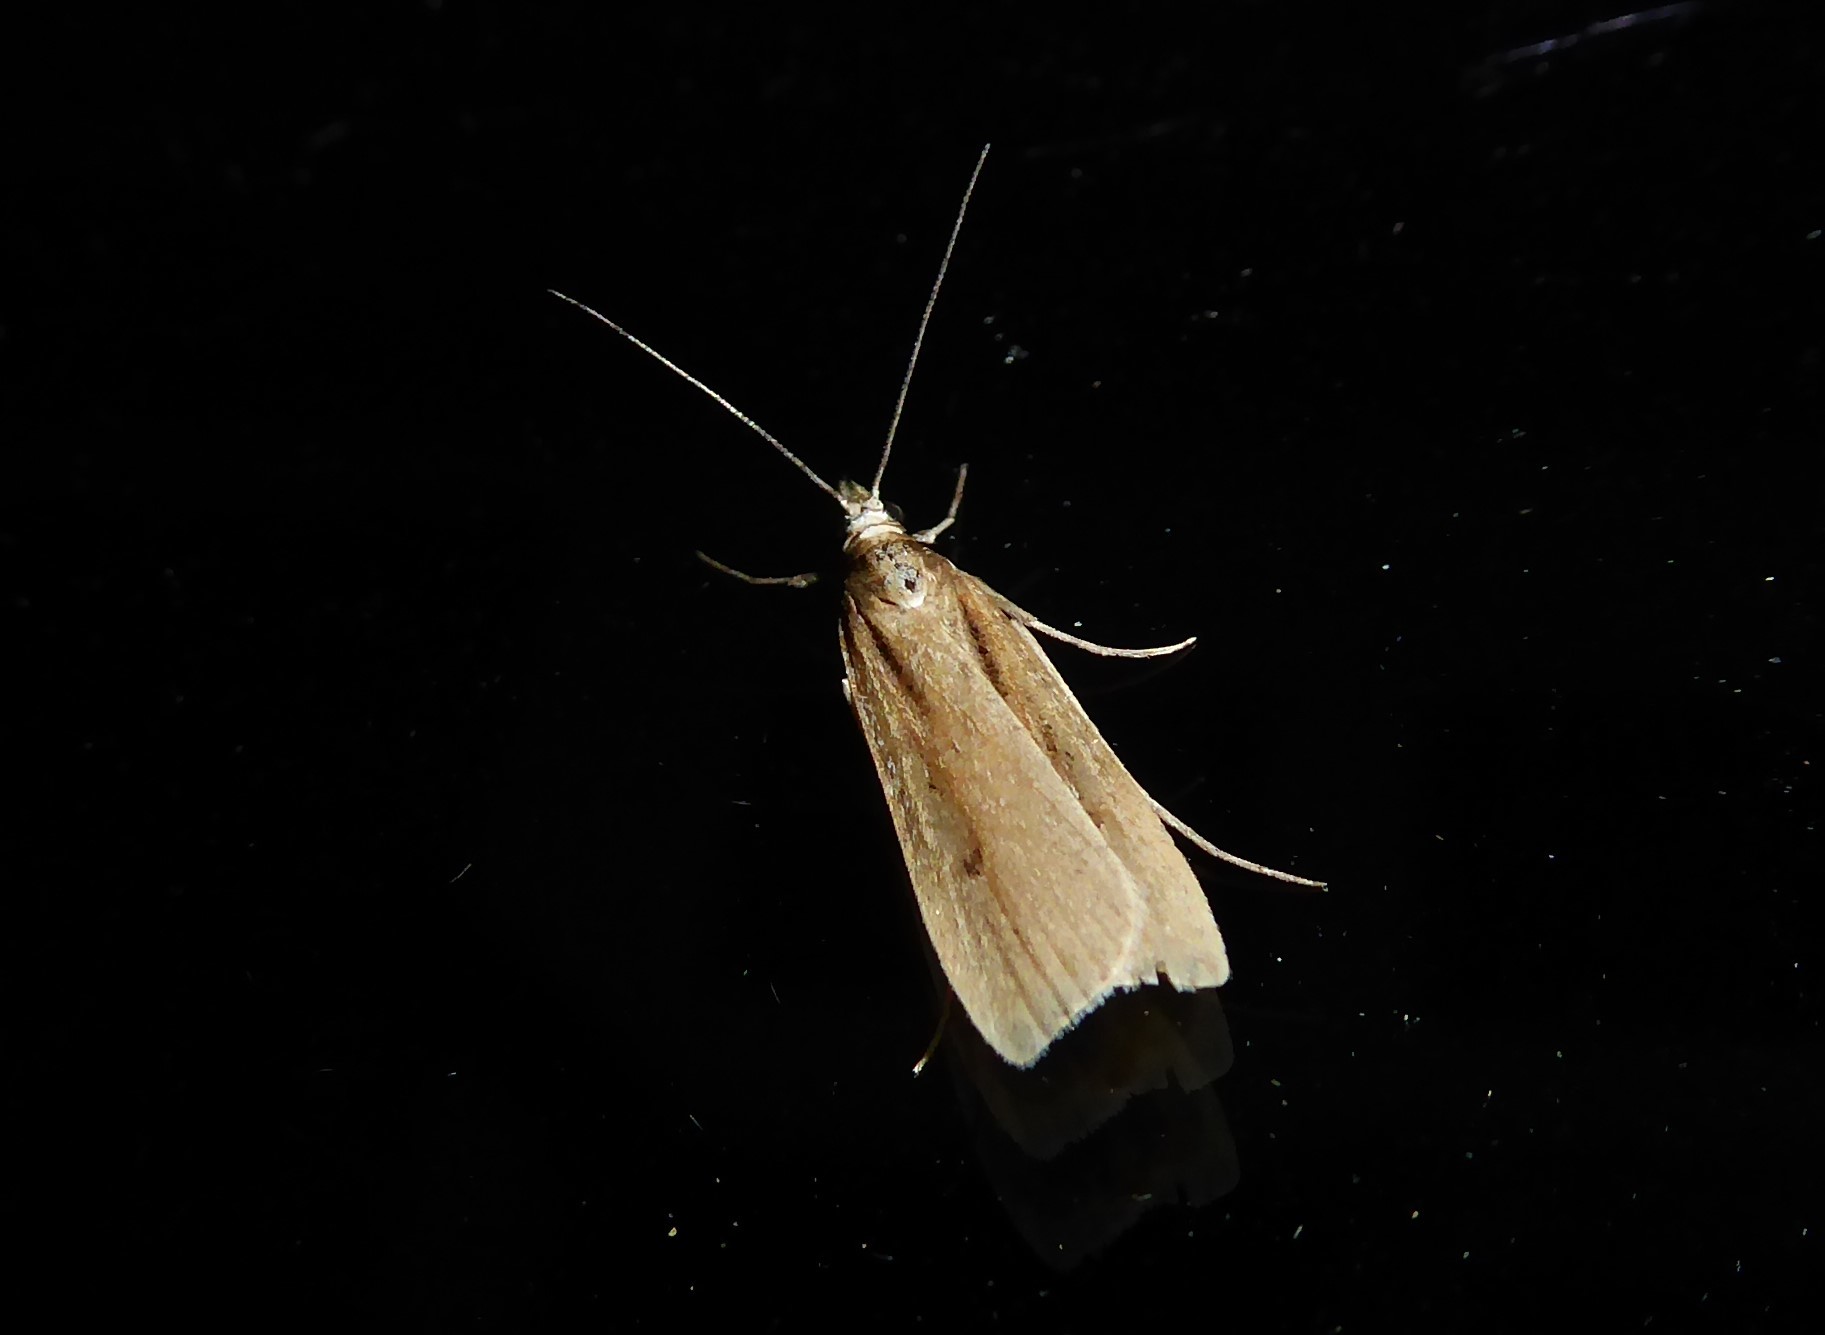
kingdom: Animalia
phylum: Arthropoda
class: Insecta
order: Lepidoptera
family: Crambidae
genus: Eudonia
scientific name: Eudonia sabulosella
